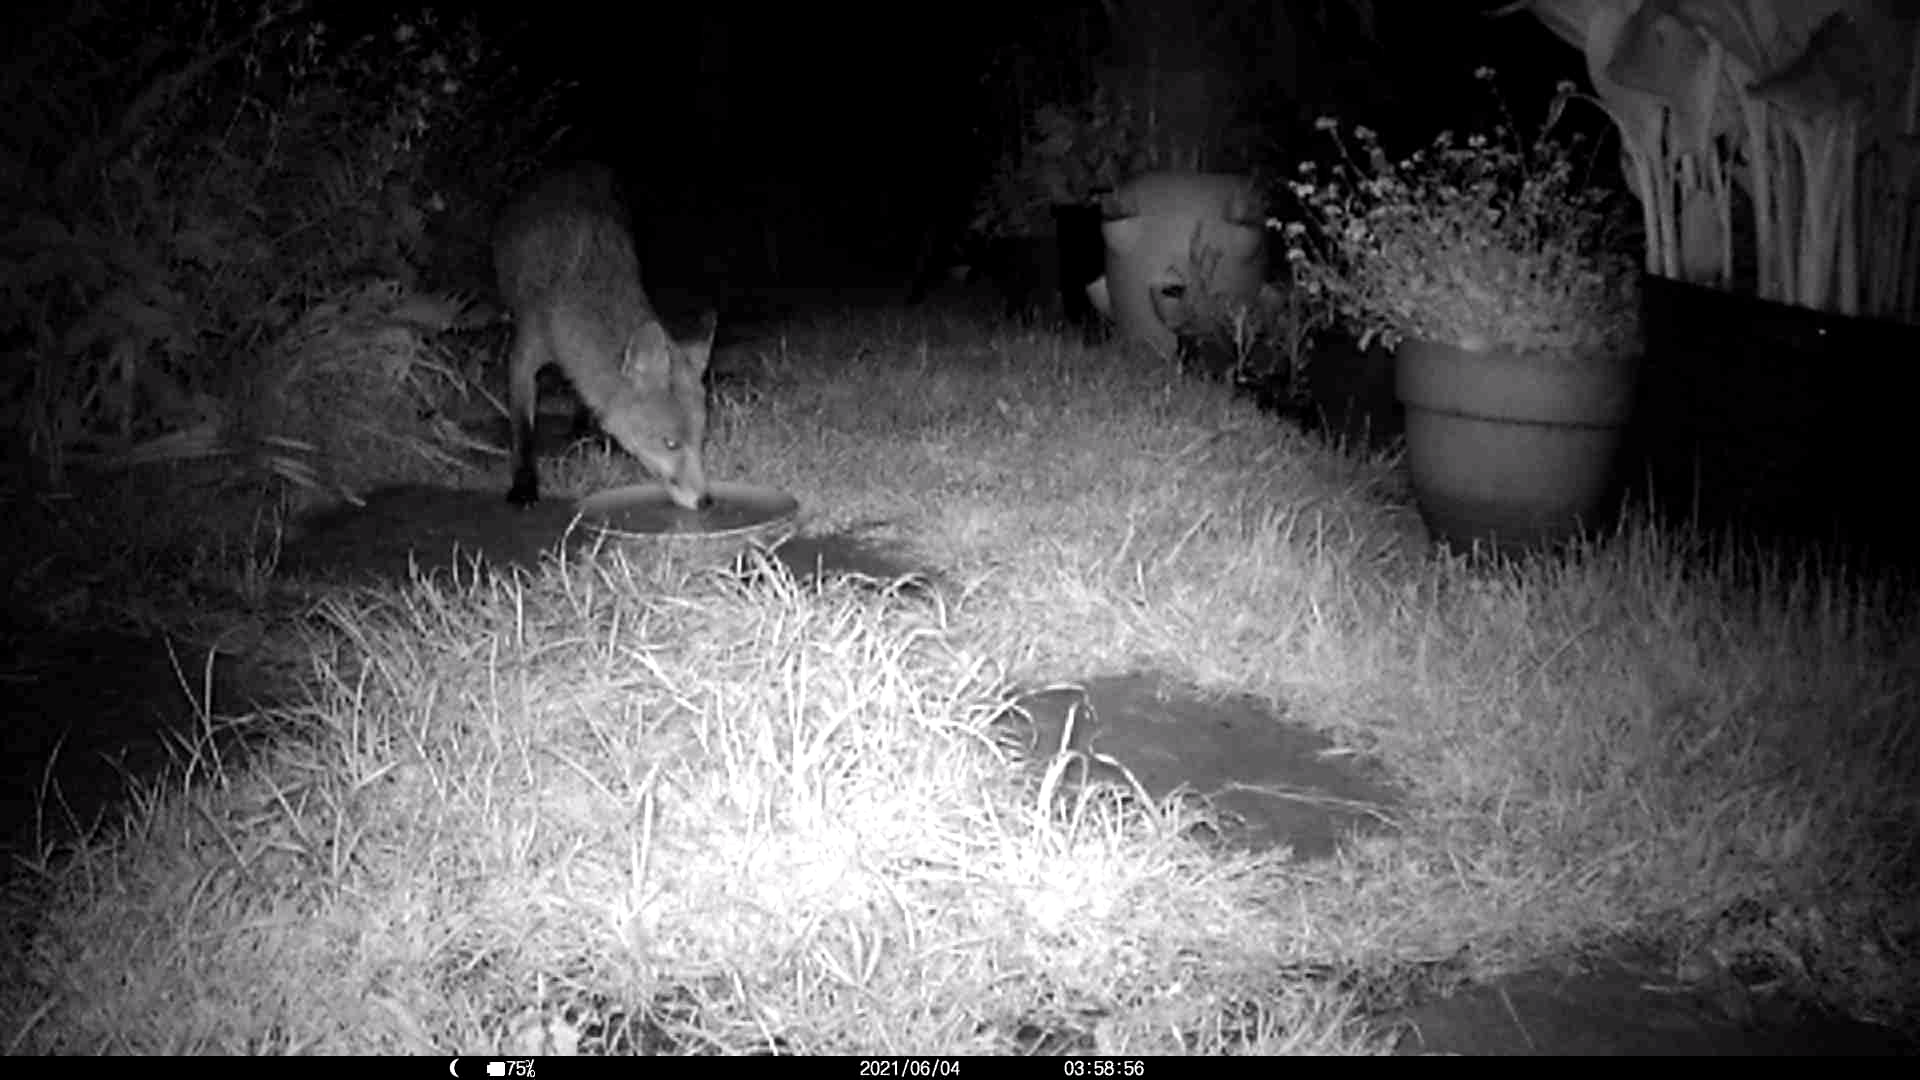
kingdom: Animalia
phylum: Chordata
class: Mammalia
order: Carnivora
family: Canidae
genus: Vulpes
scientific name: Vulpes vulpes
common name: Red fox
